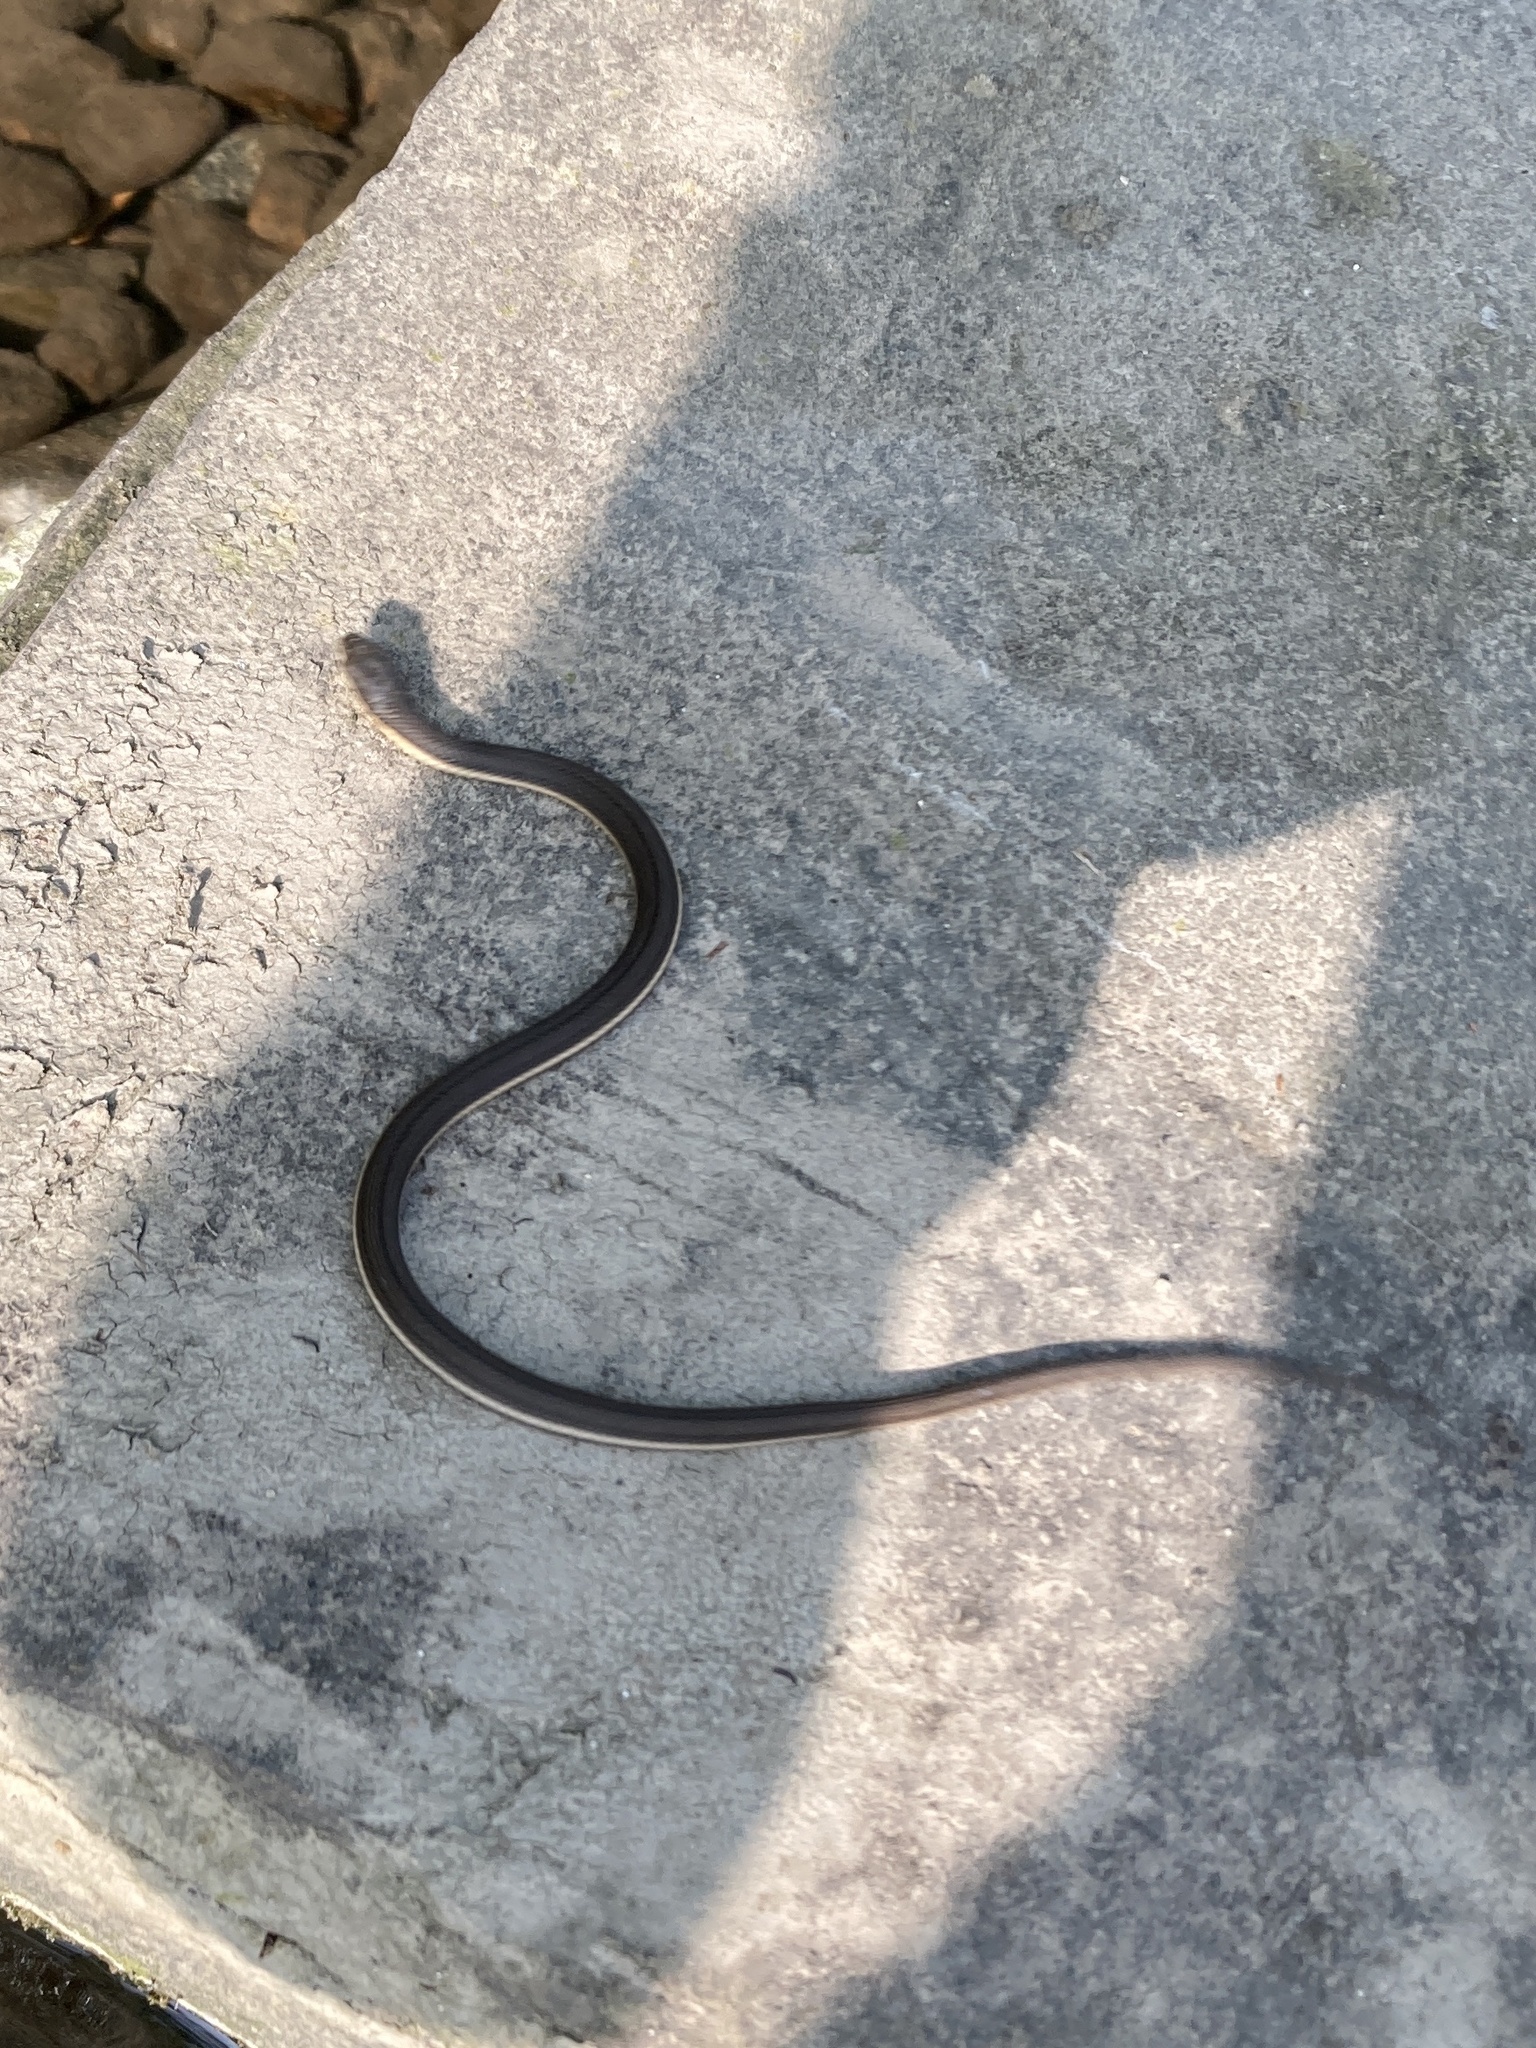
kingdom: Animalia
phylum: Chordata
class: Squamata
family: Colubridae
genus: Regina
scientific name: Regina septemvittata
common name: Queen snake
